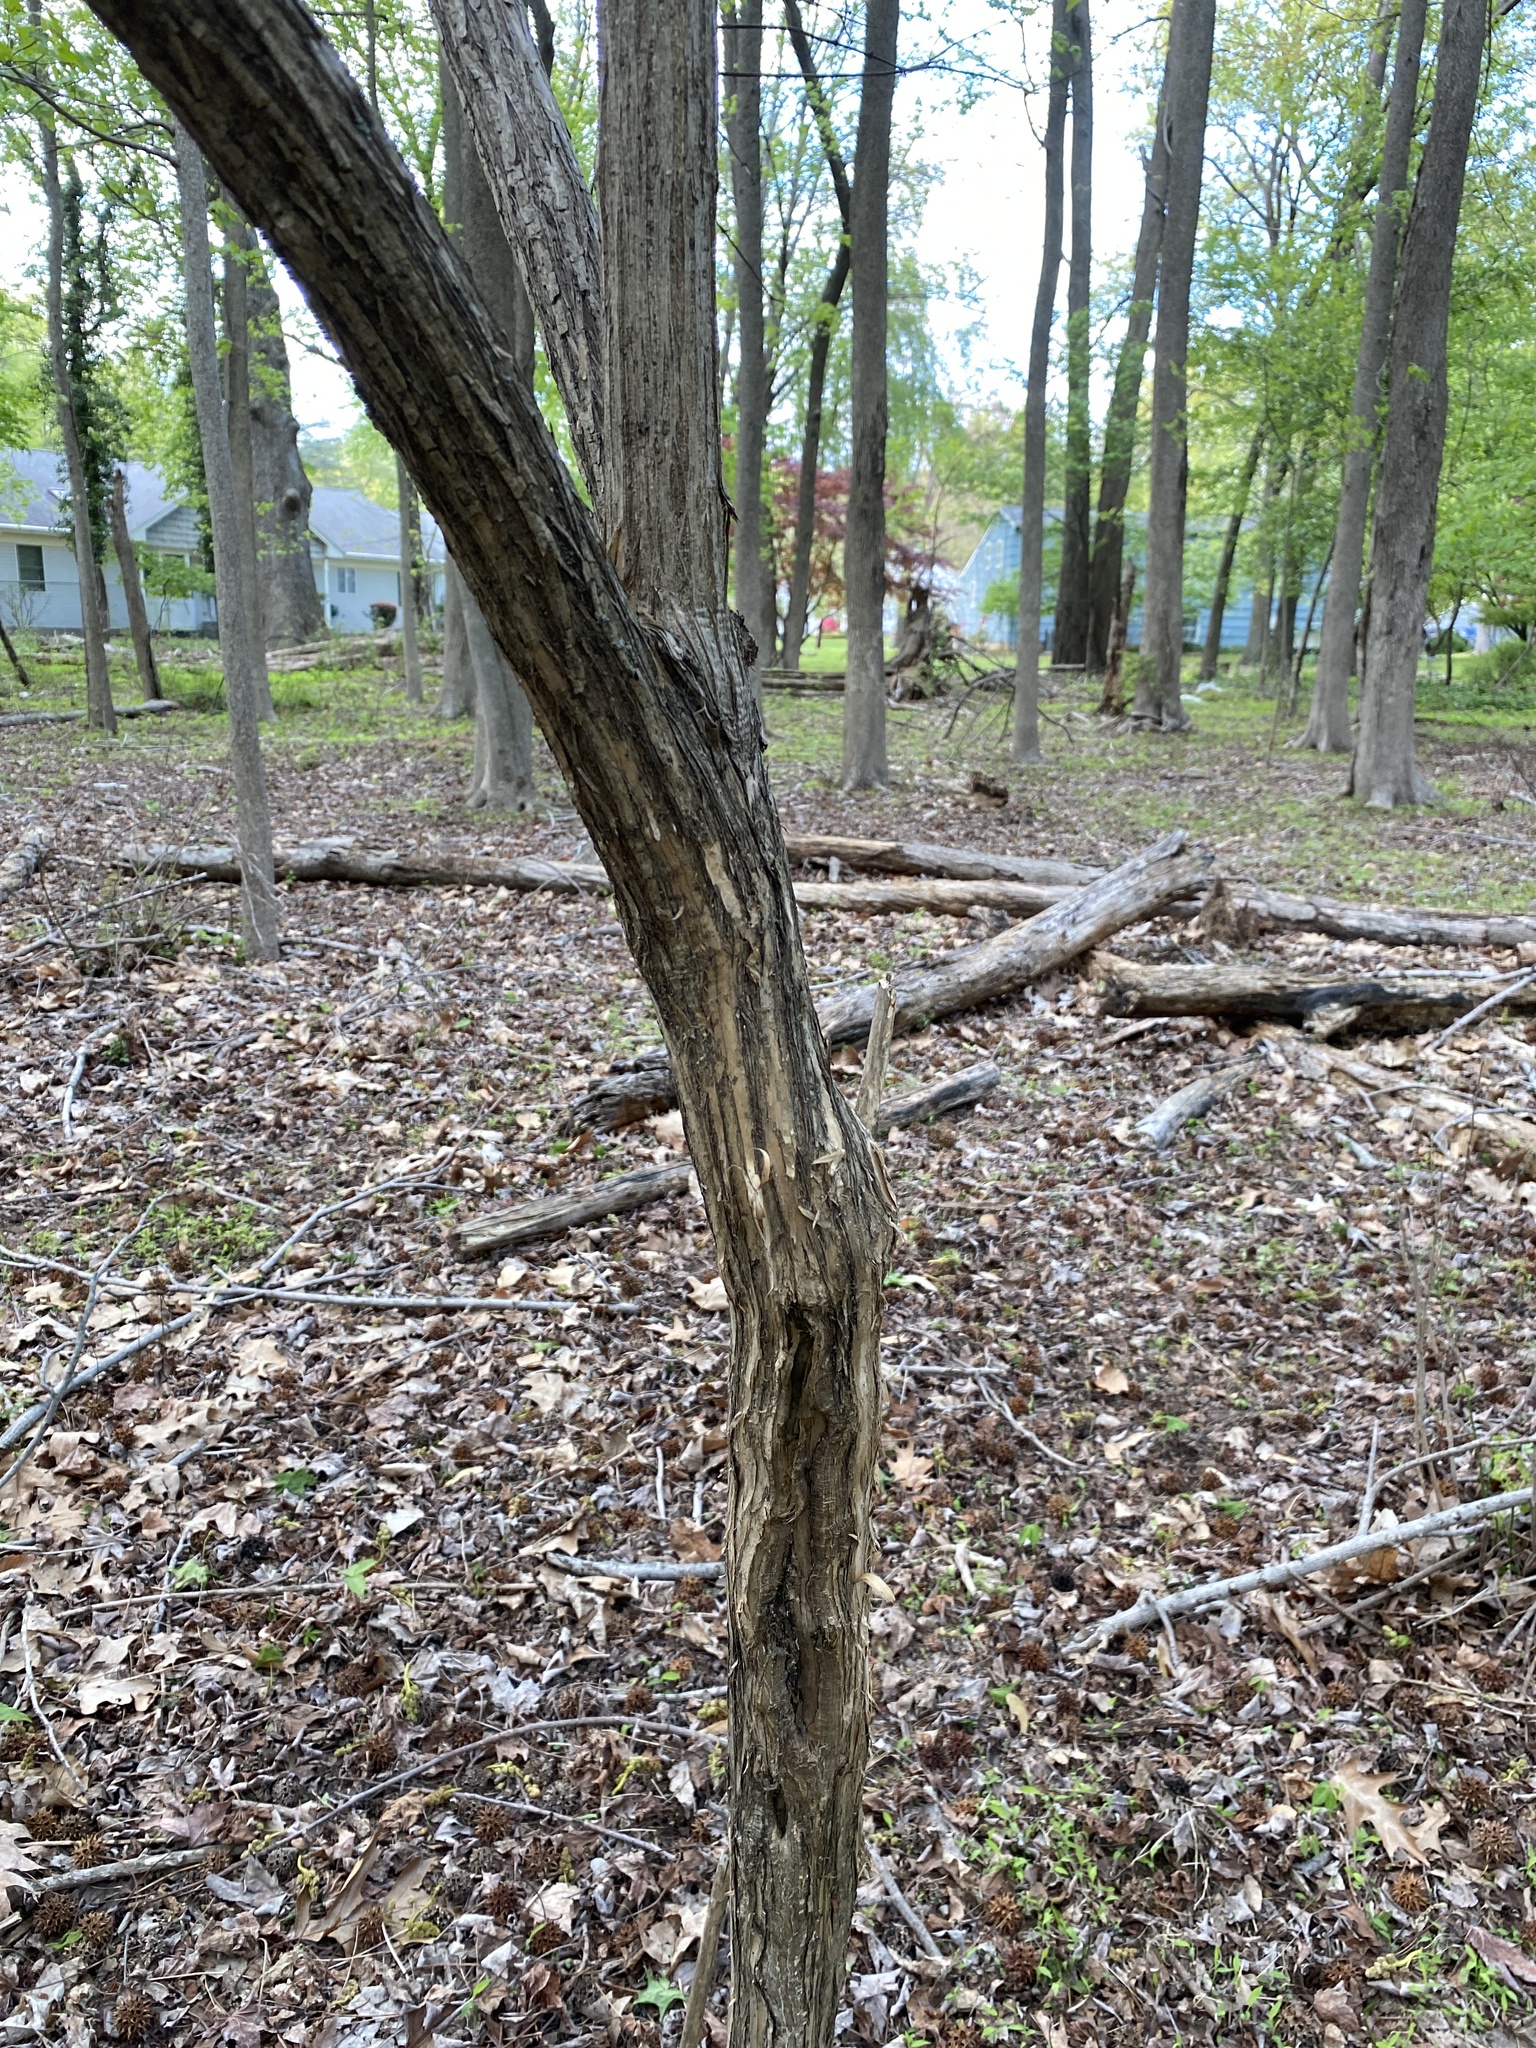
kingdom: Plantae
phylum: Tracheophyta
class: Magnoliopsida
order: Dipsacales
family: Caprifoliaceae
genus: Lonicera
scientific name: Lonicera maackii
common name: Amur honeysuckle
